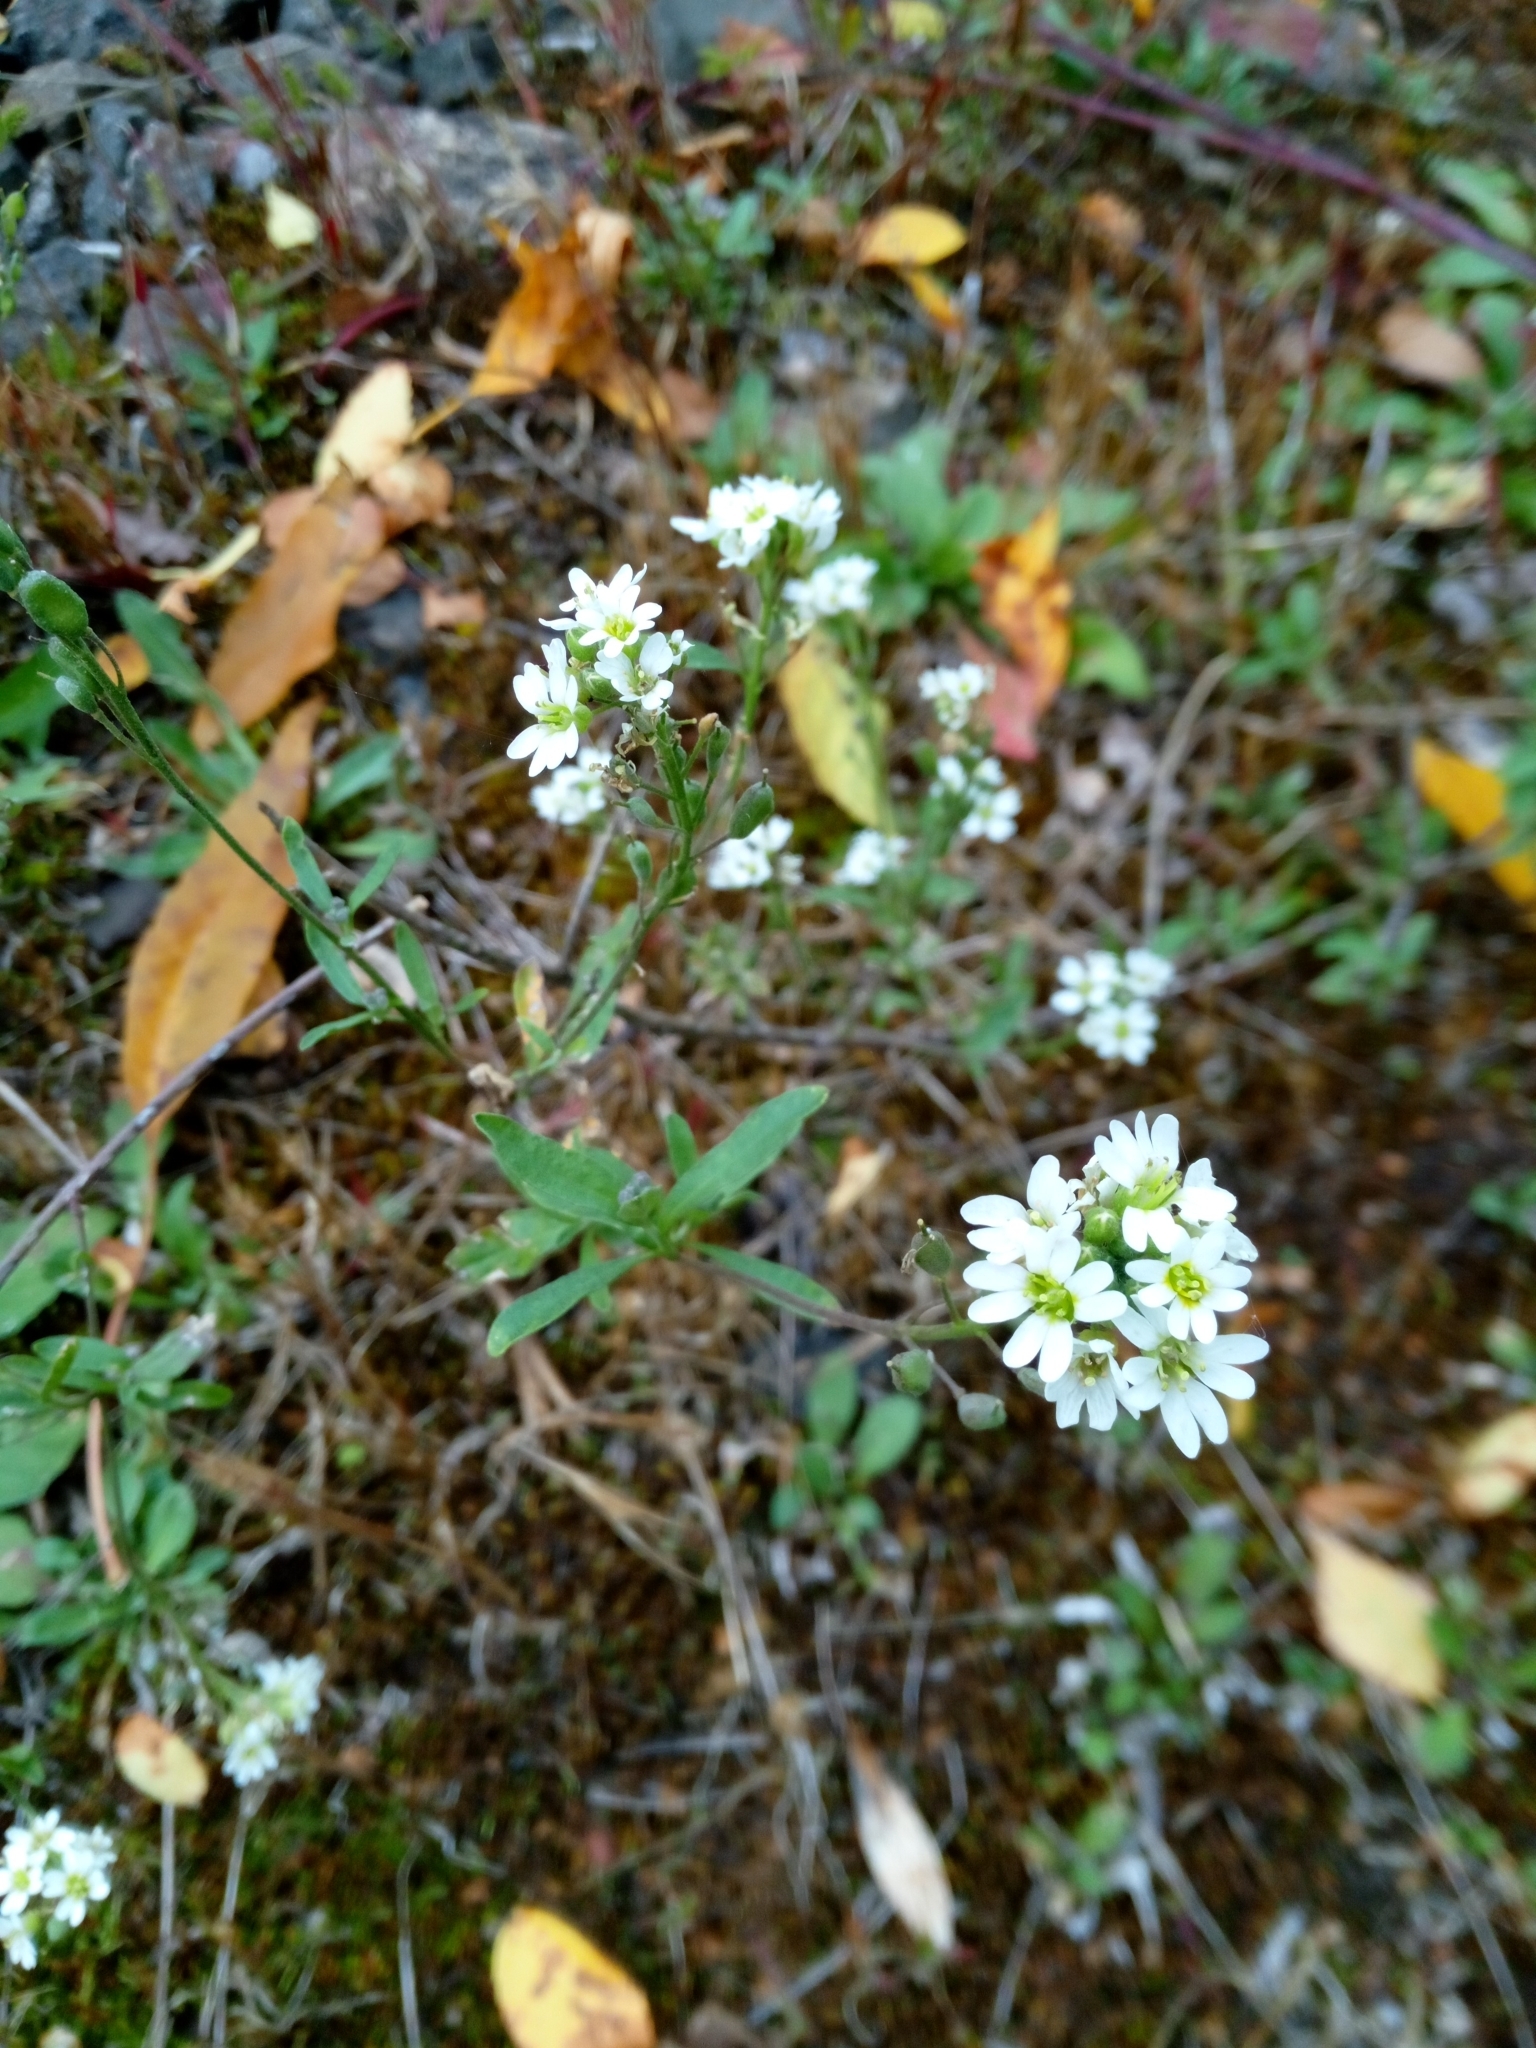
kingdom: Plantae
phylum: Tracheophyta
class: Magnoliopsida
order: Brassicales
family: Brassicaceae
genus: Berteroa
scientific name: Berteroa incana
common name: Hoary alison
